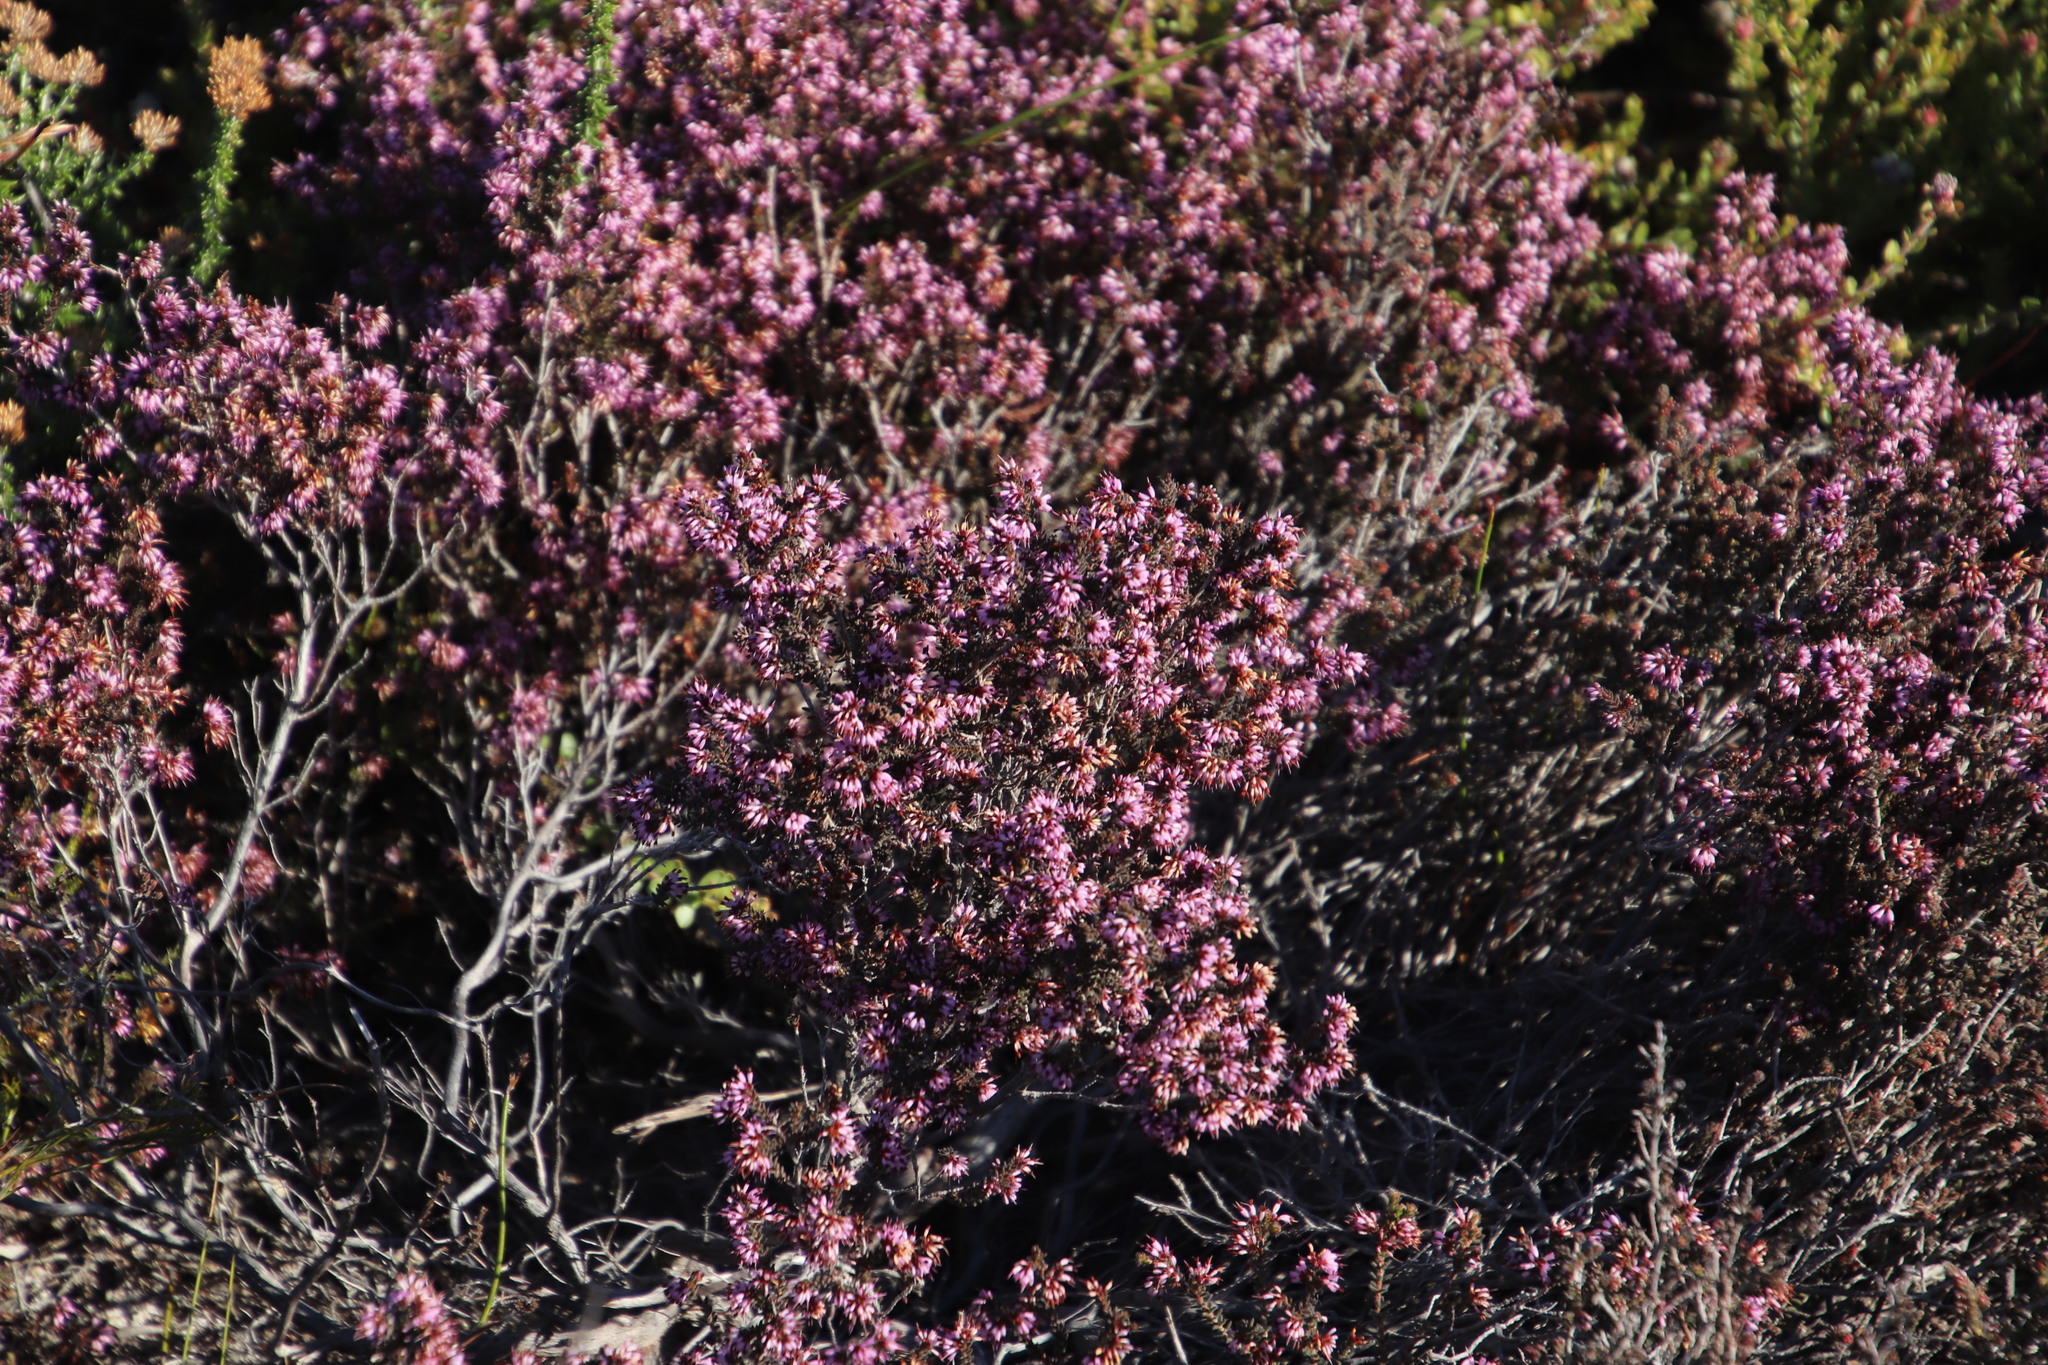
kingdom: Plantae
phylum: Tracheophyta
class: Magnoliopsida
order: Ericales
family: Ericaceae
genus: Erica
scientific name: Erica similis
